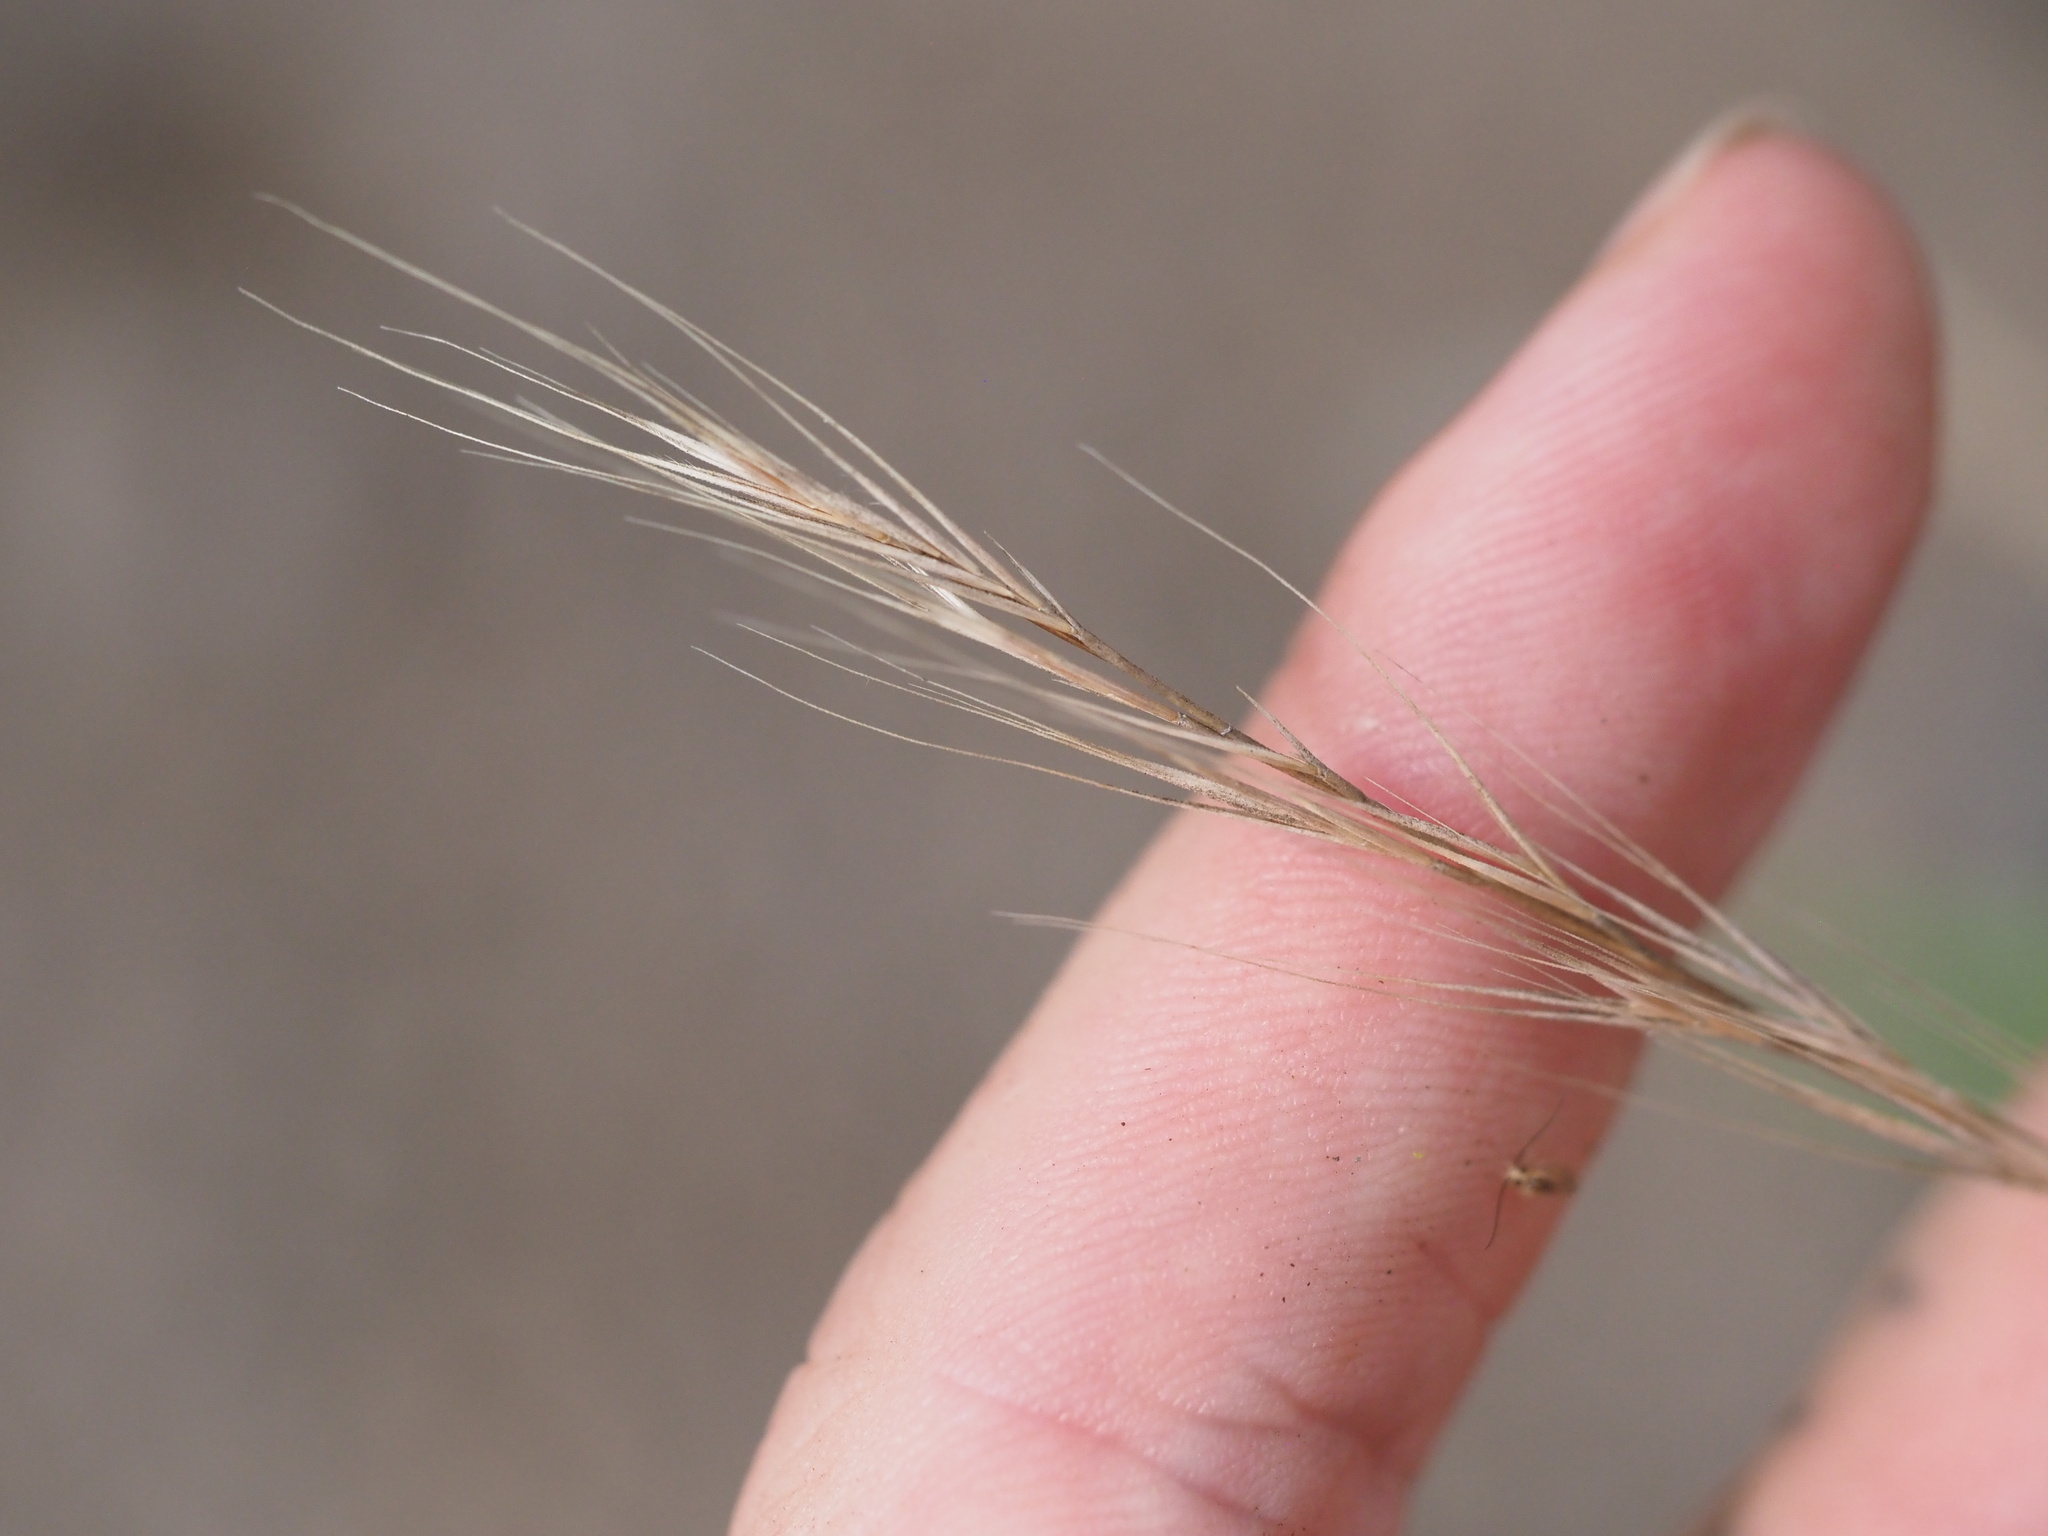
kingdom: Plantae
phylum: Tracheophyta
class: Liliopsida
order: Poales
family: Poaceae
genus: Festuca
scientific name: Festuca myuros
